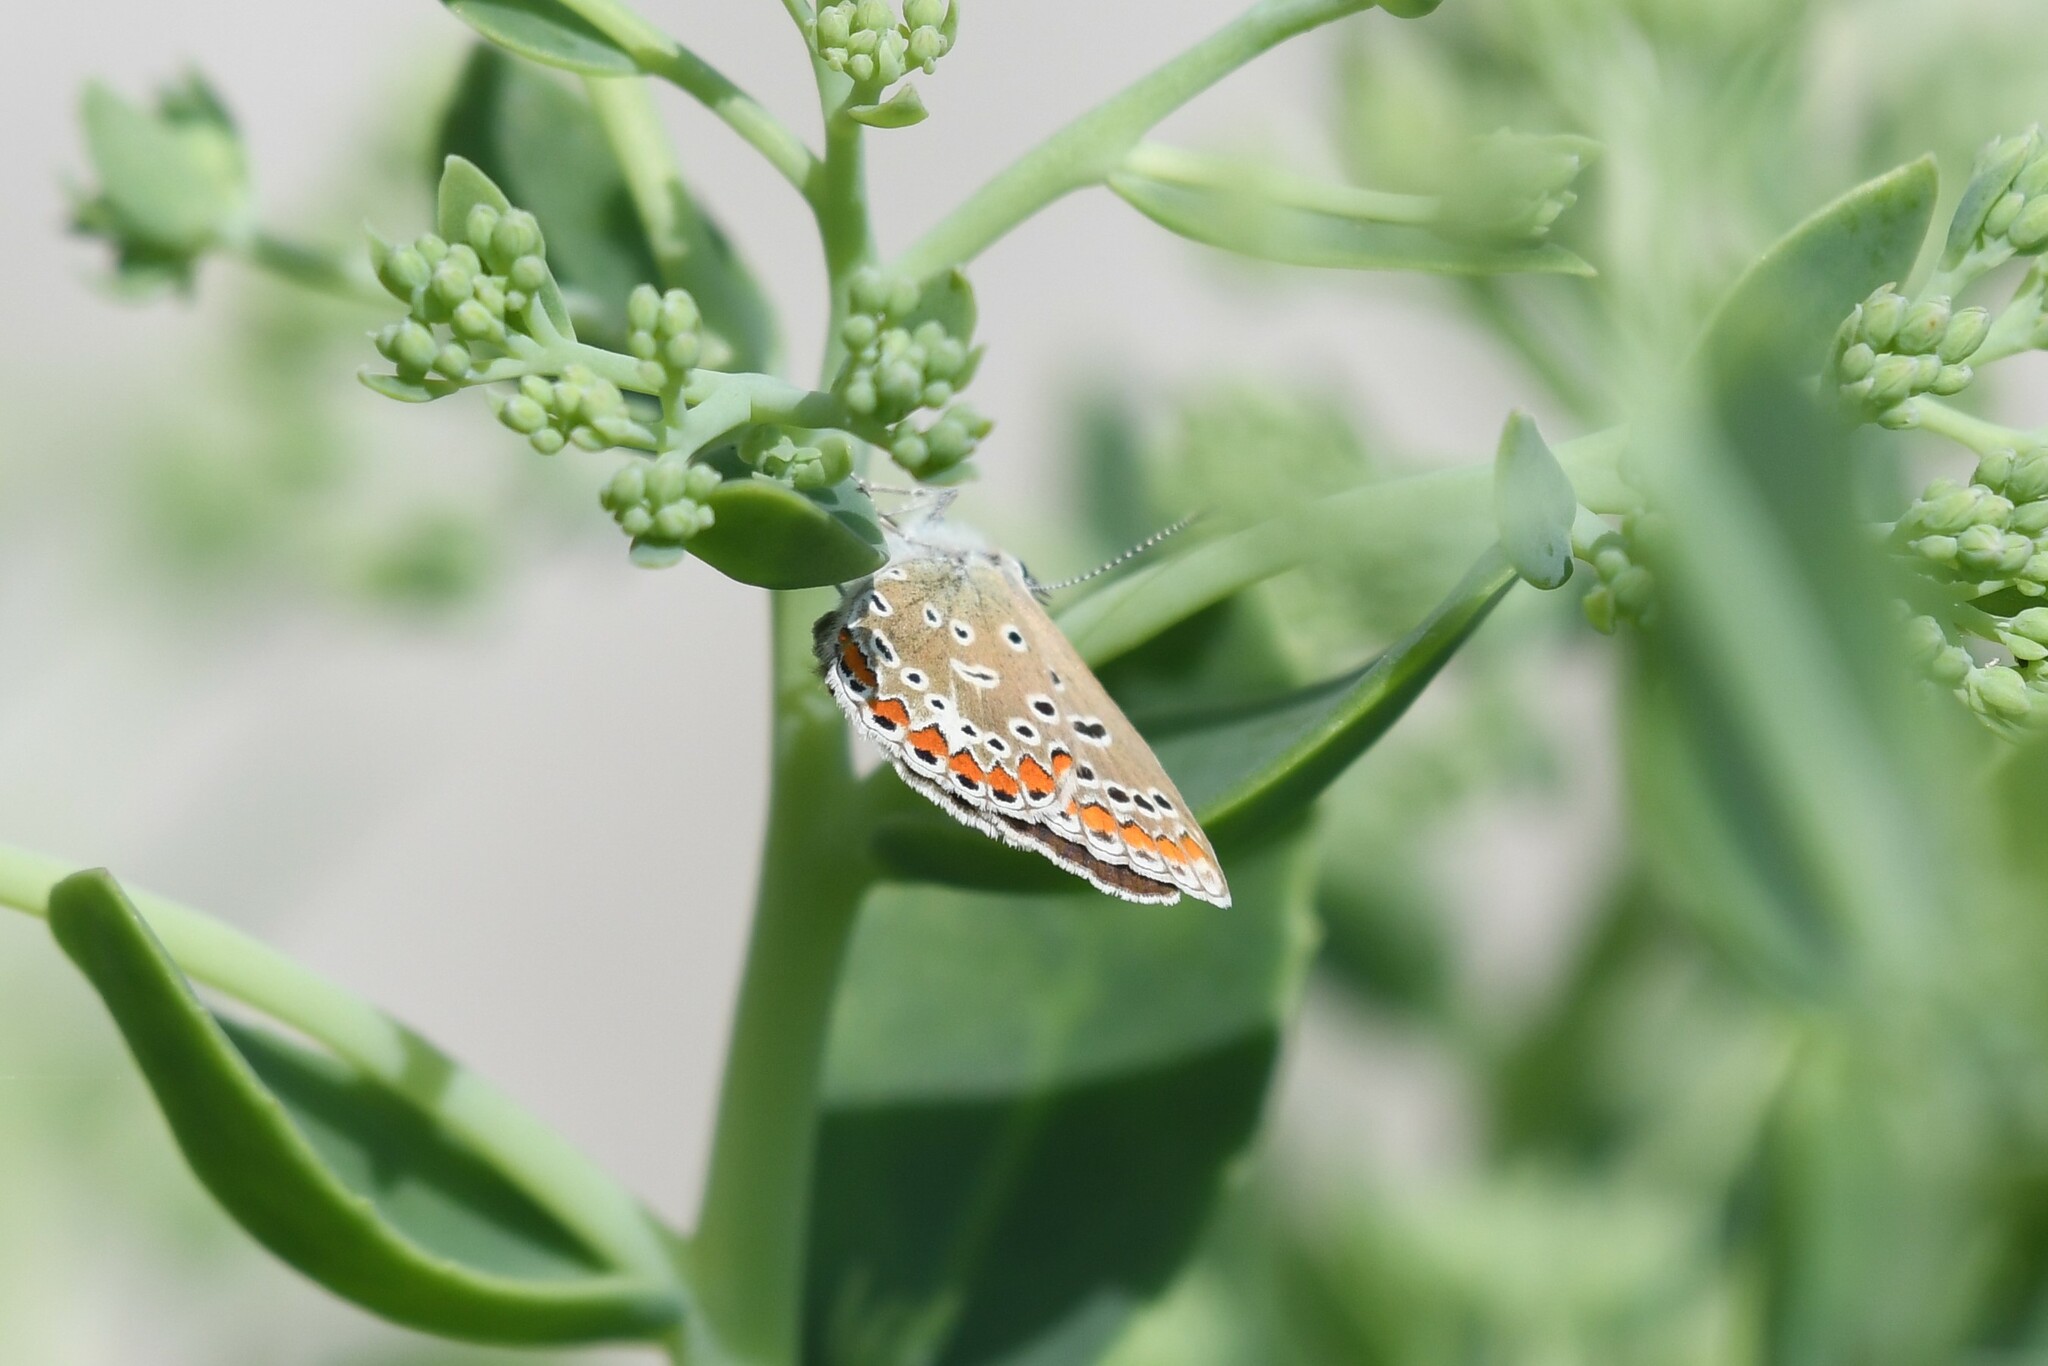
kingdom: Animalia
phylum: Arthropoda
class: Insecta
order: Lepidoptera
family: Lycaenidae
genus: Polyommatus
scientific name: Polyommatus icarus
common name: Common blue
